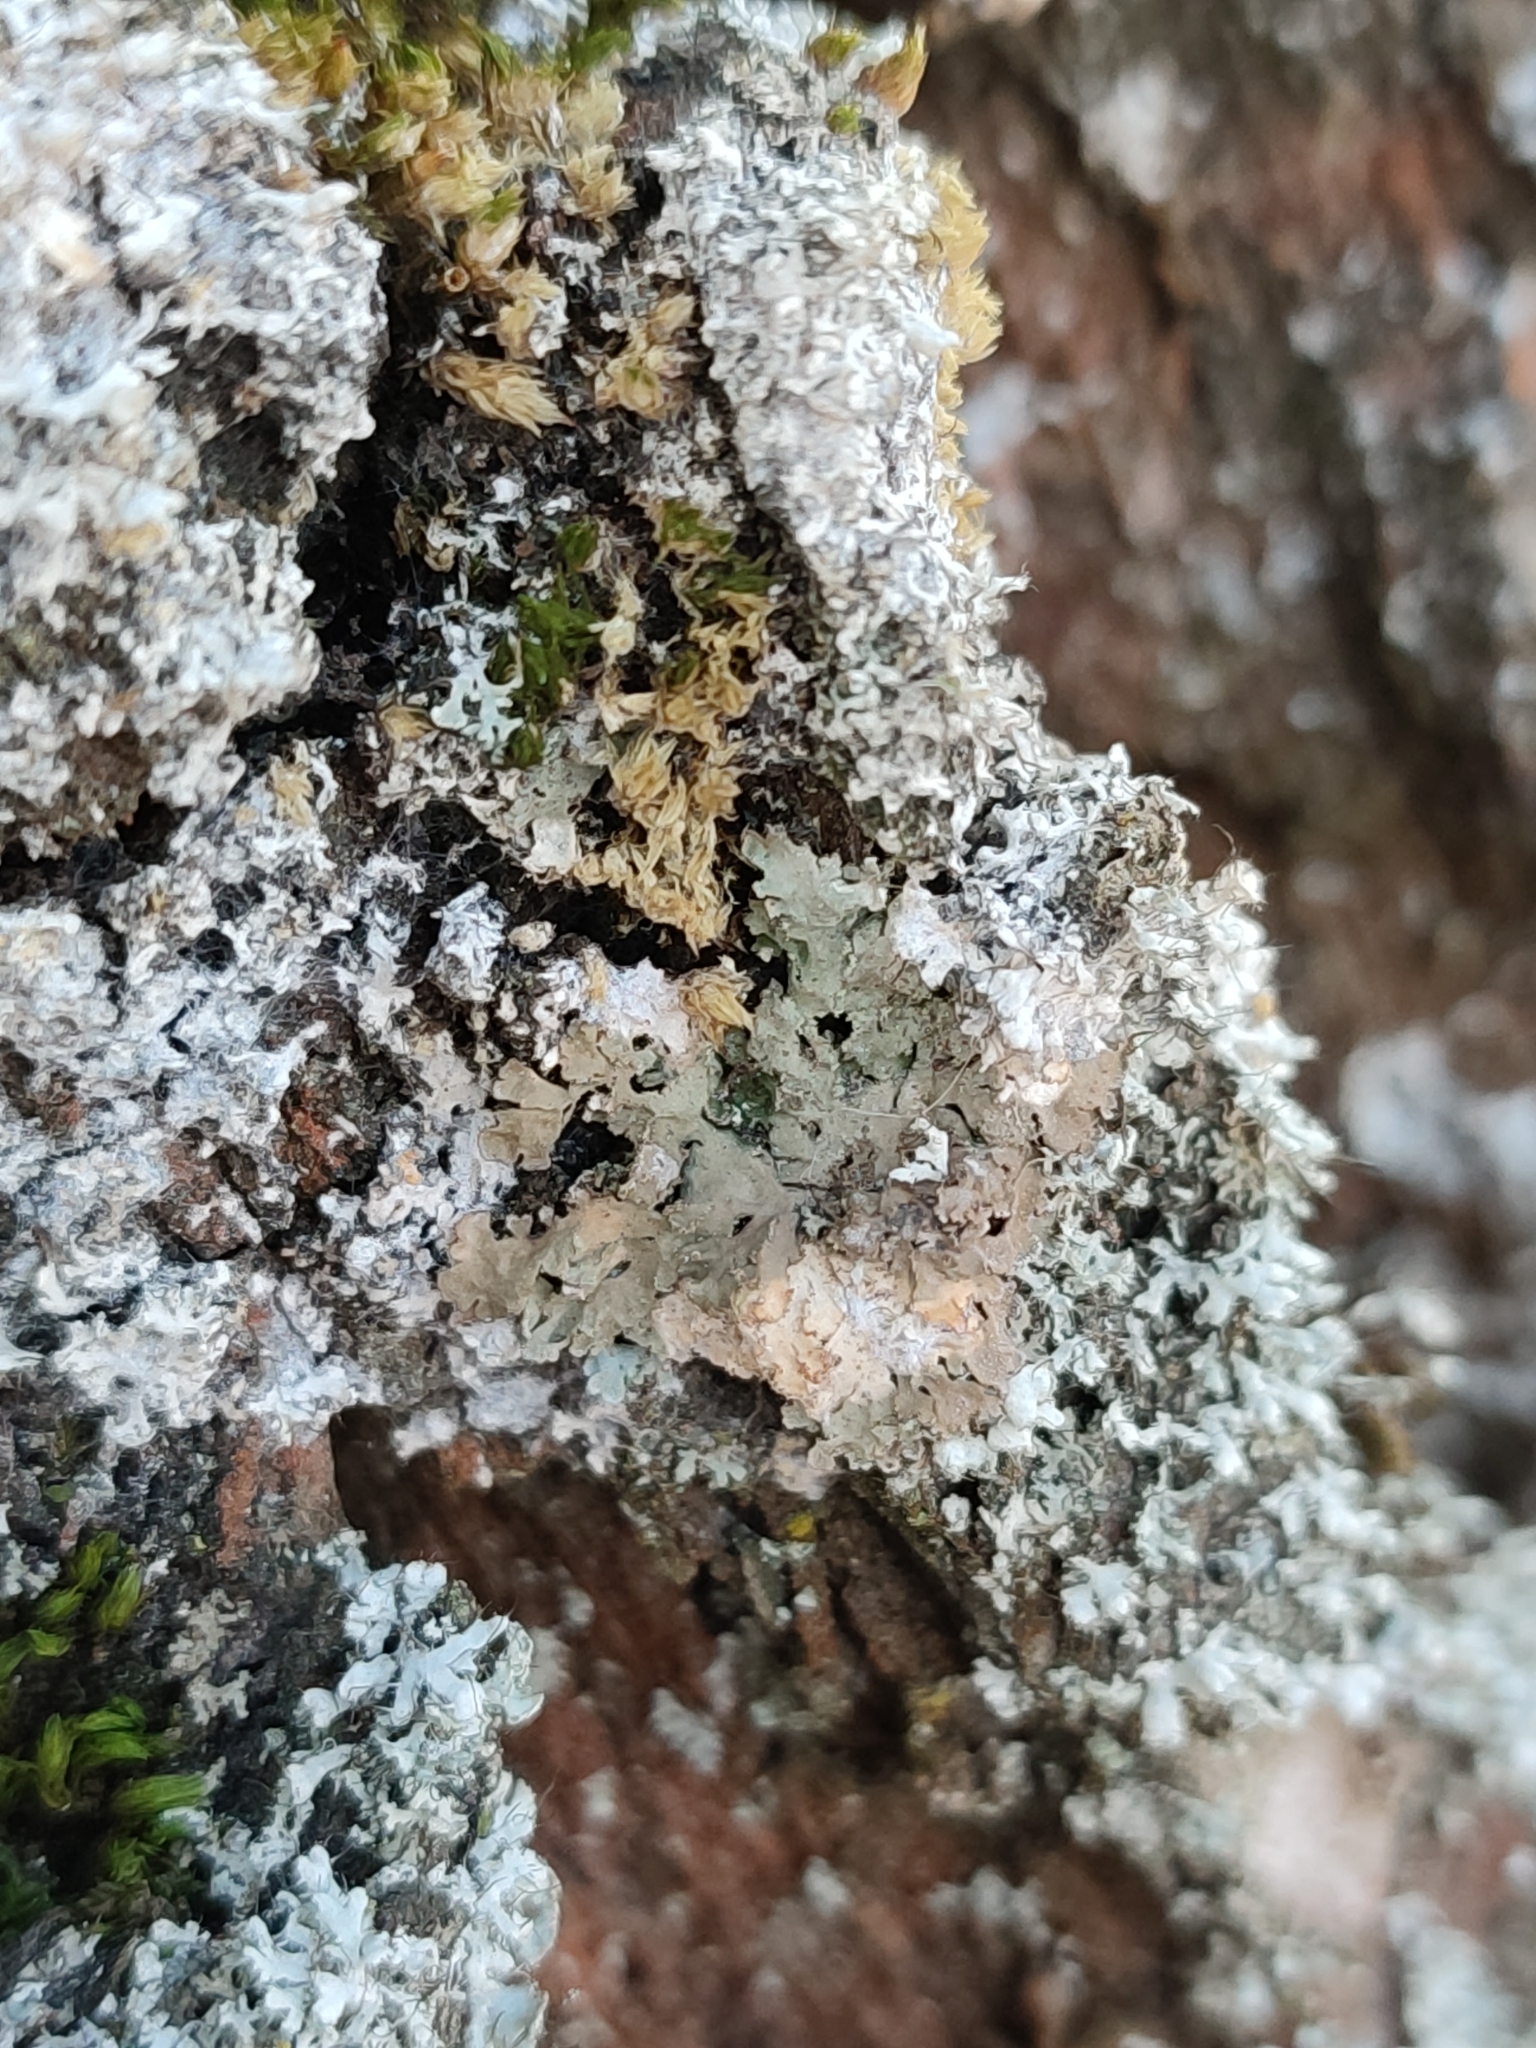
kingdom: Fungi
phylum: Ascomycota
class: Lecanoromycetes
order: Caliciales
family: Physciaceae
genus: Poeltonia
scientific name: Poeltonia grisea
